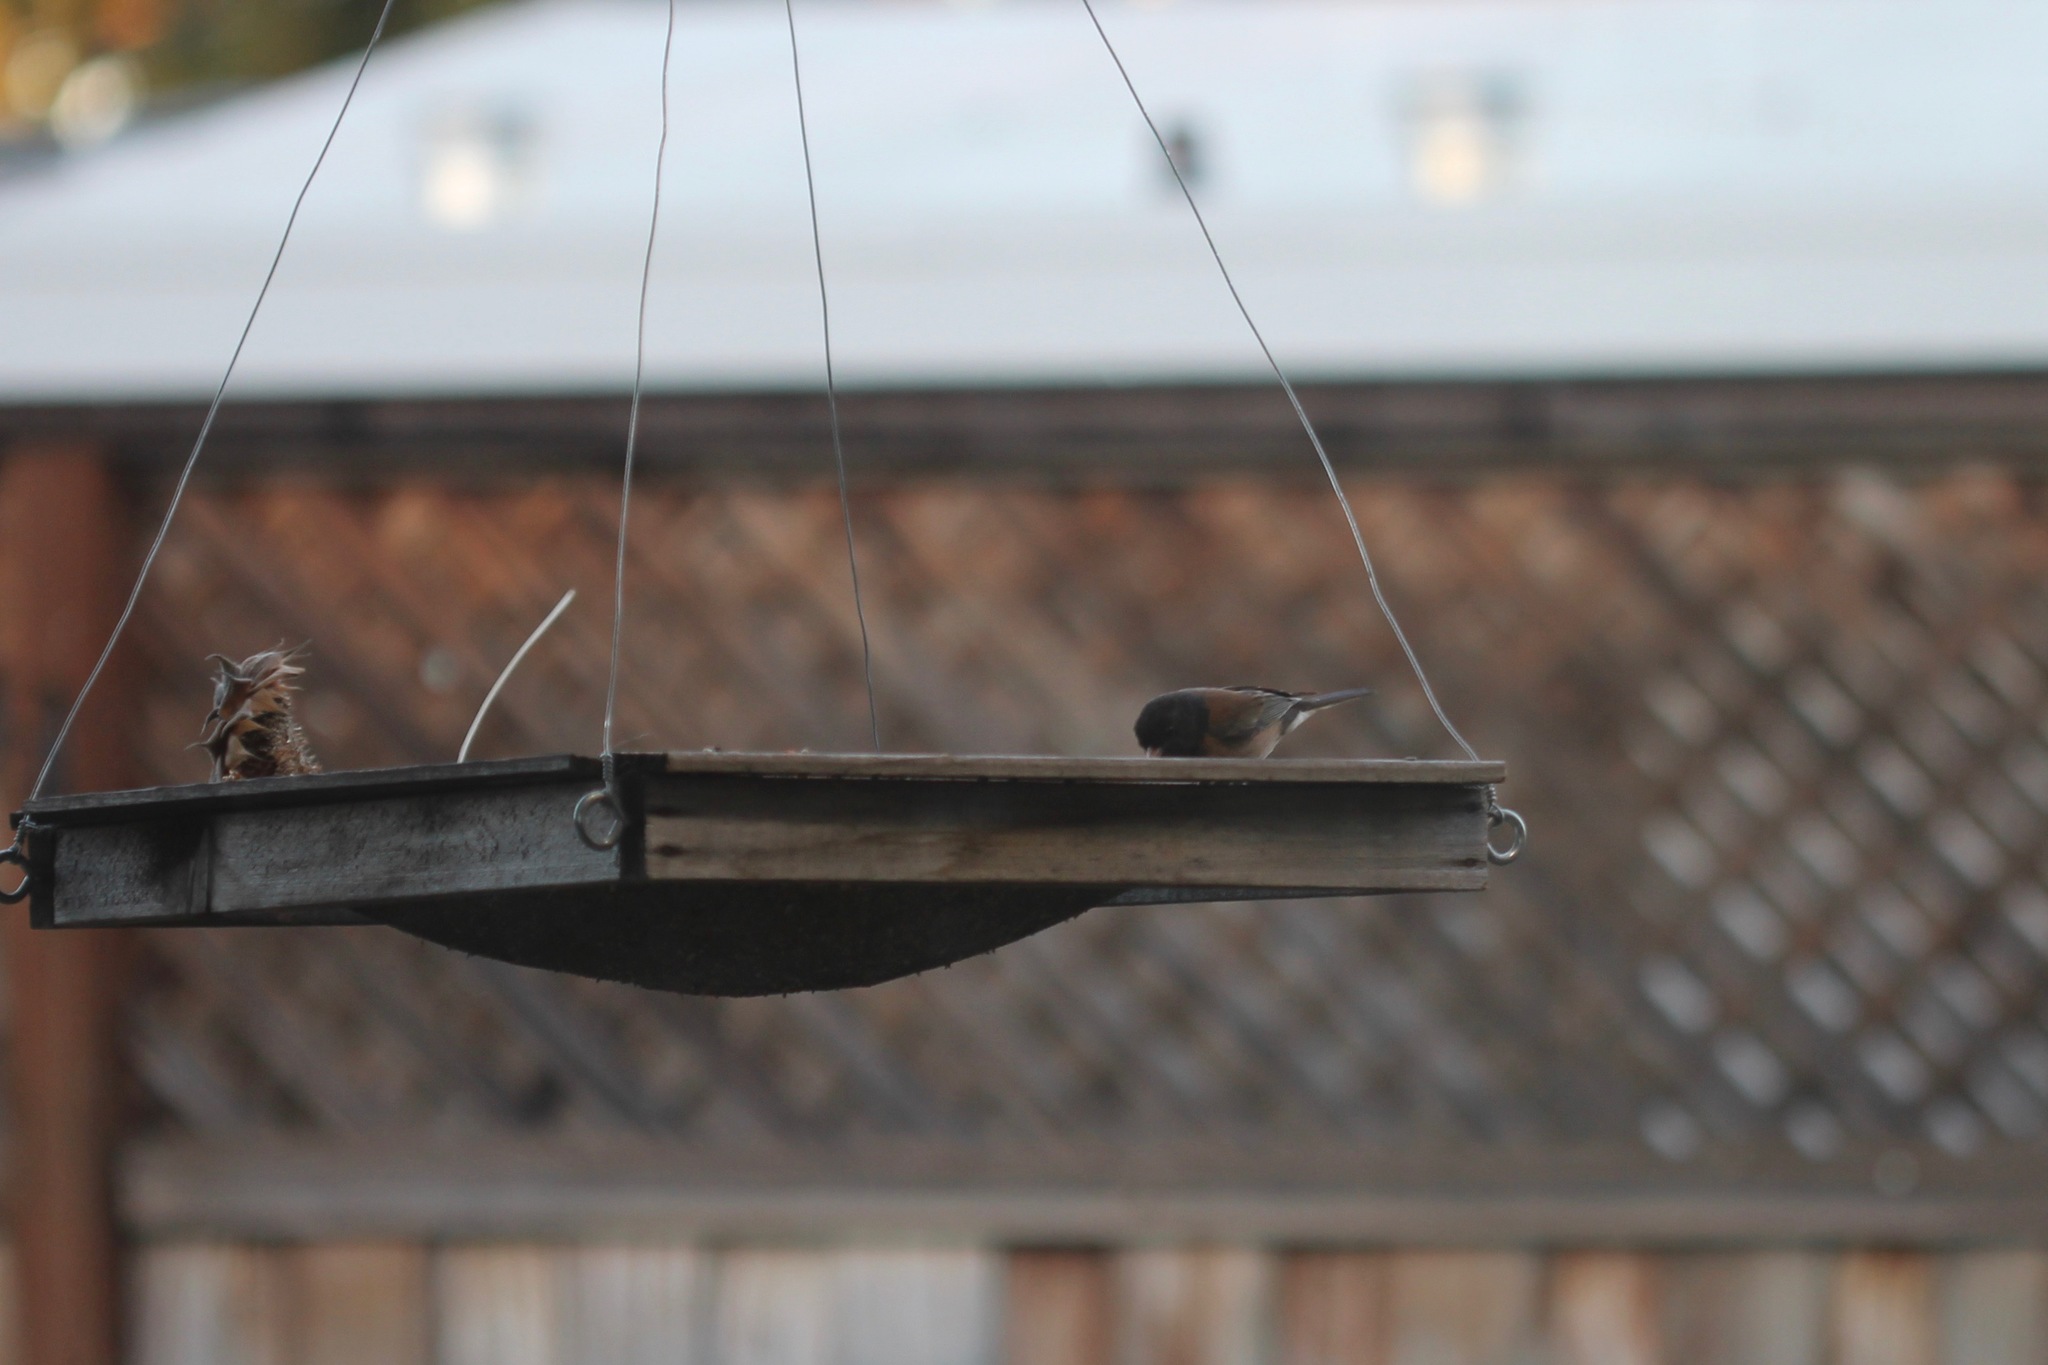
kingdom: Animalia
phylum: Chordata
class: Aves
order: Passeriformes
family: Passerellidae
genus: Junco
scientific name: Junco hyemalis
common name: Dark-eyed junco
